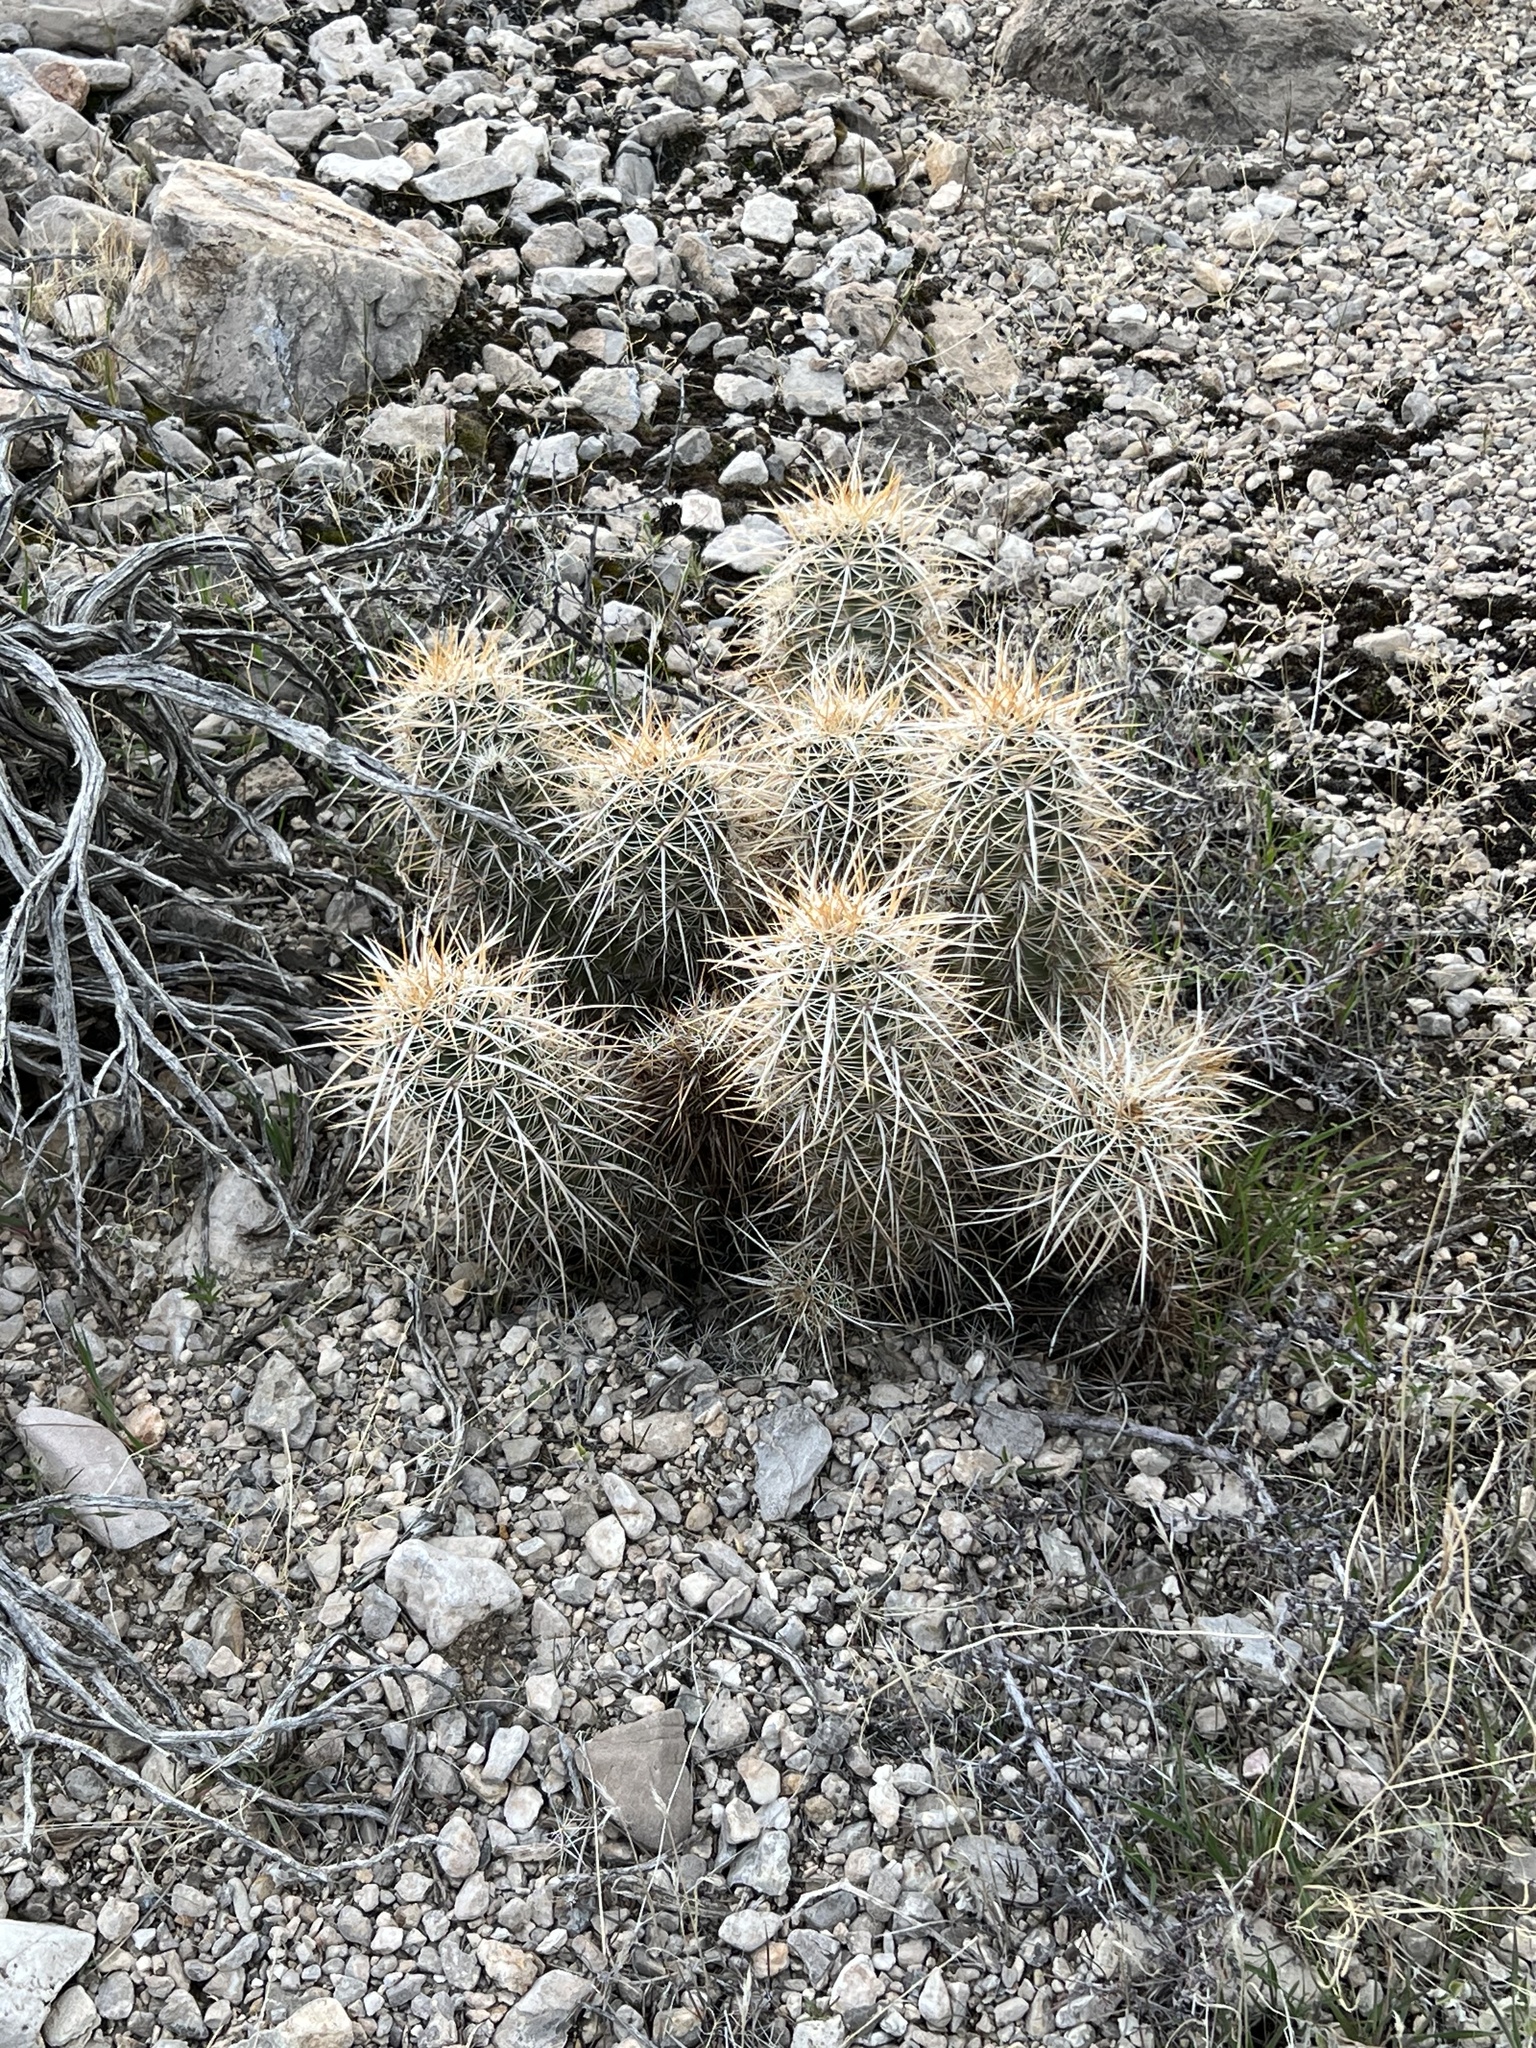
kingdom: Plantae
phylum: Tracheophyta
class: Magnoliopsida
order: Caryophyllales
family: Cactaceae
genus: Echinocereus
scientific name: Echinocereus engelmannii
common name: Engelmann's hedgehog cactus
